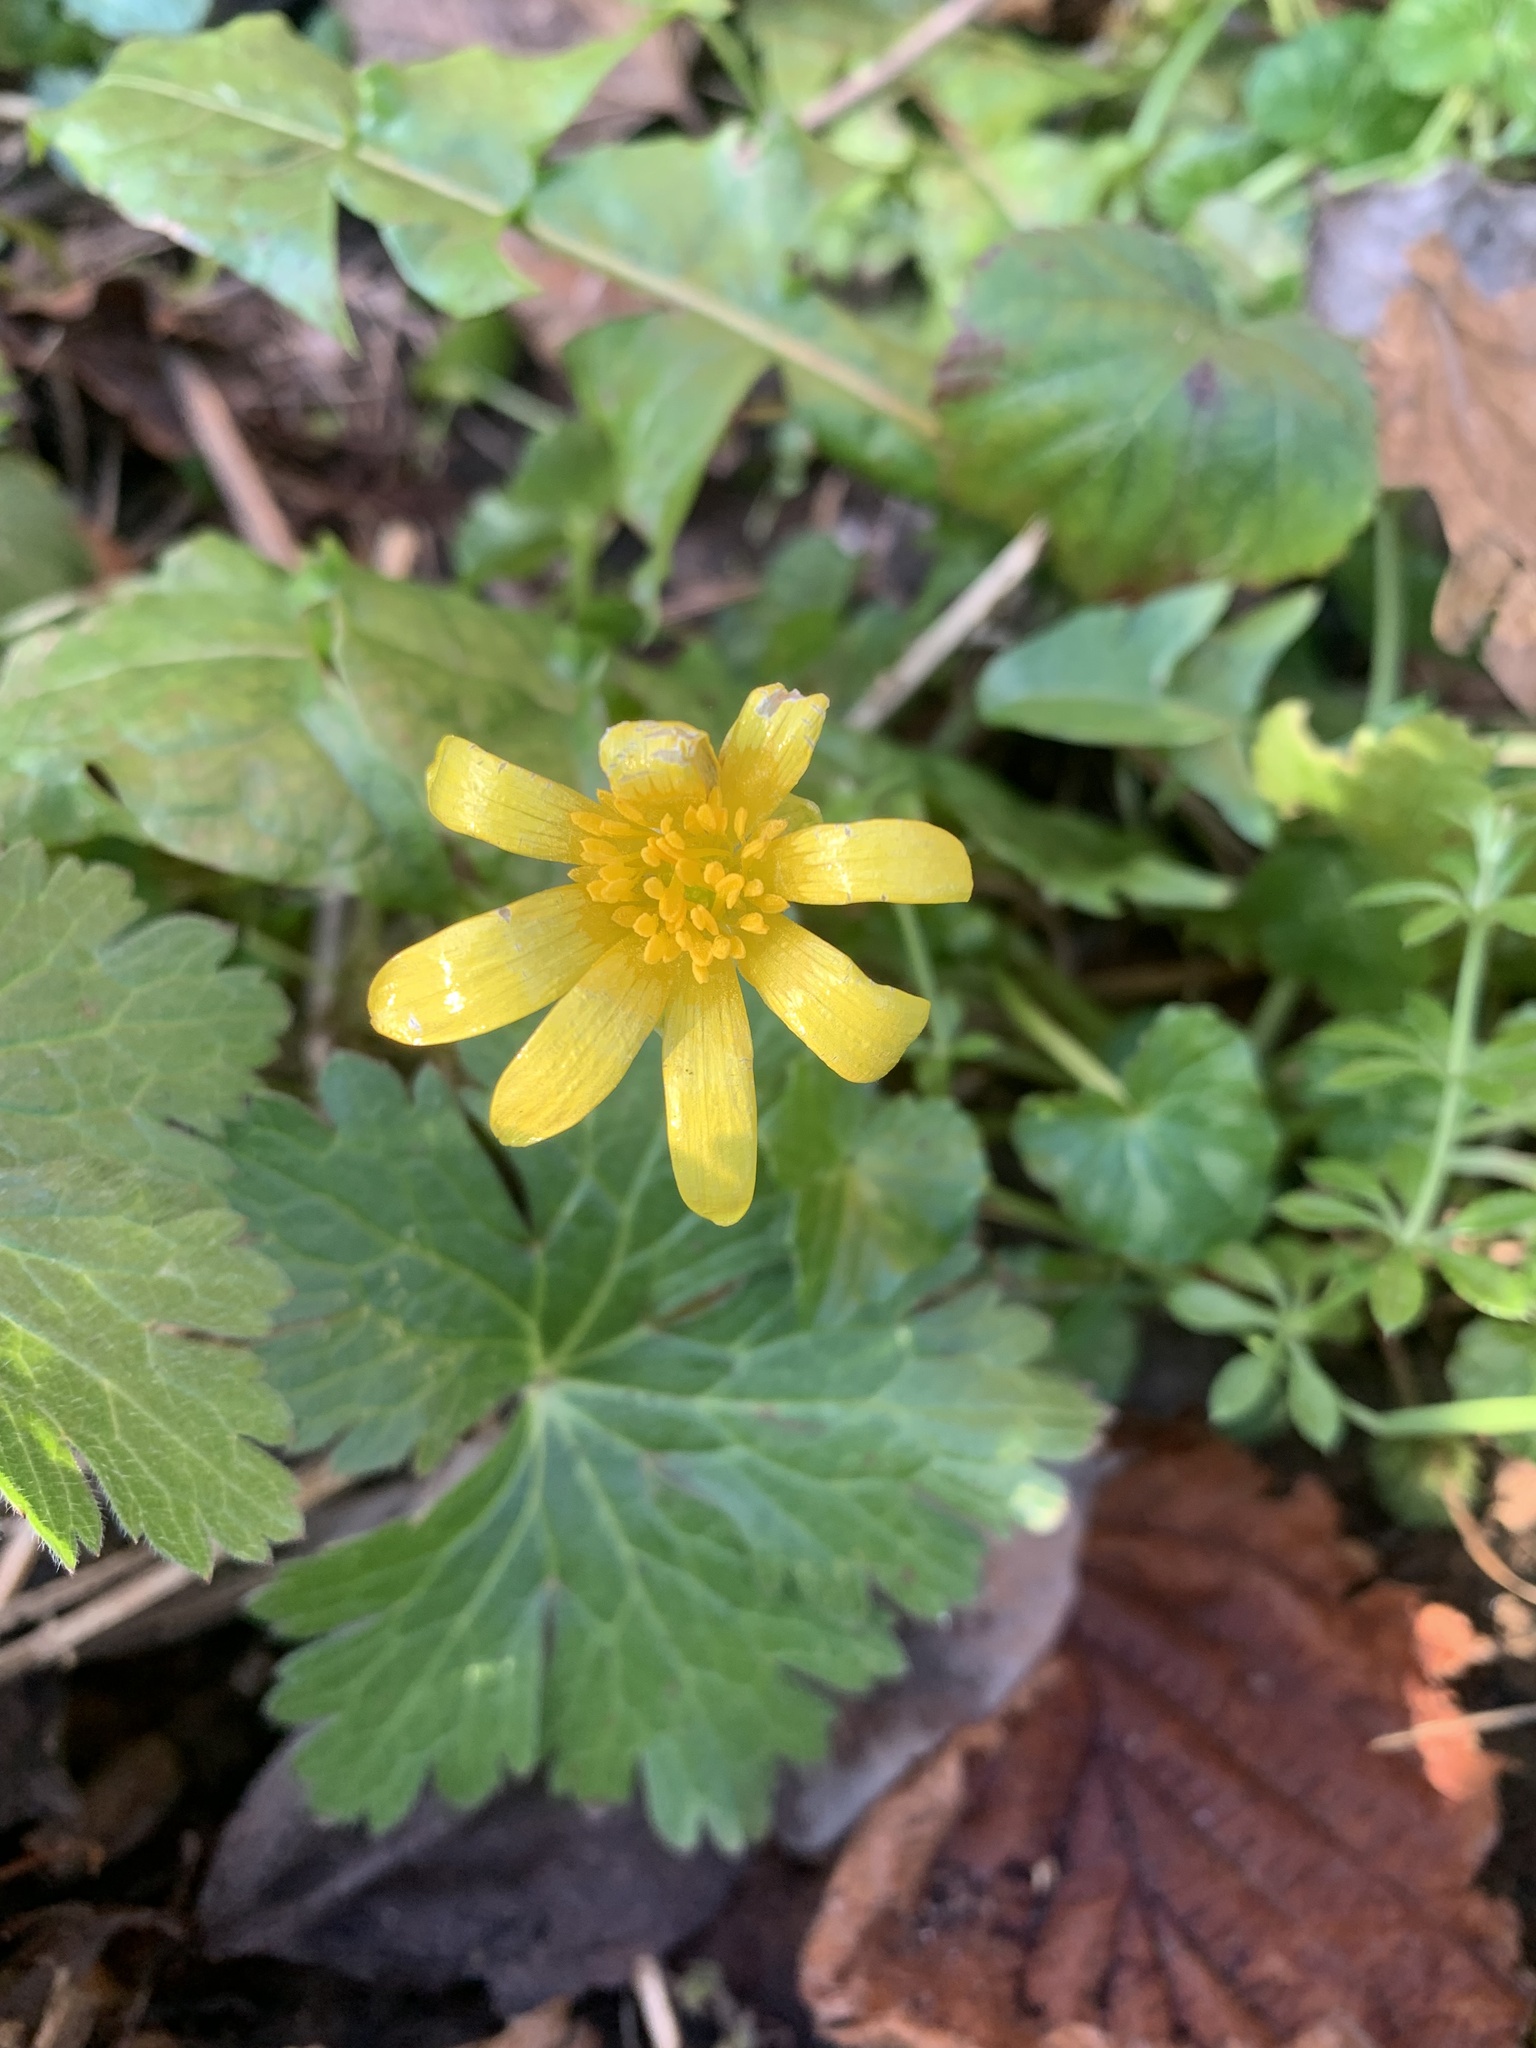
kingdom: Plantae
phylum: Tracheophyta
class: Magnoliopsida
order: Ranunculales
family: Ranunculaceae
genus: Ficaria
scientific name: Ficaria verna
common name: Lesser celandine
